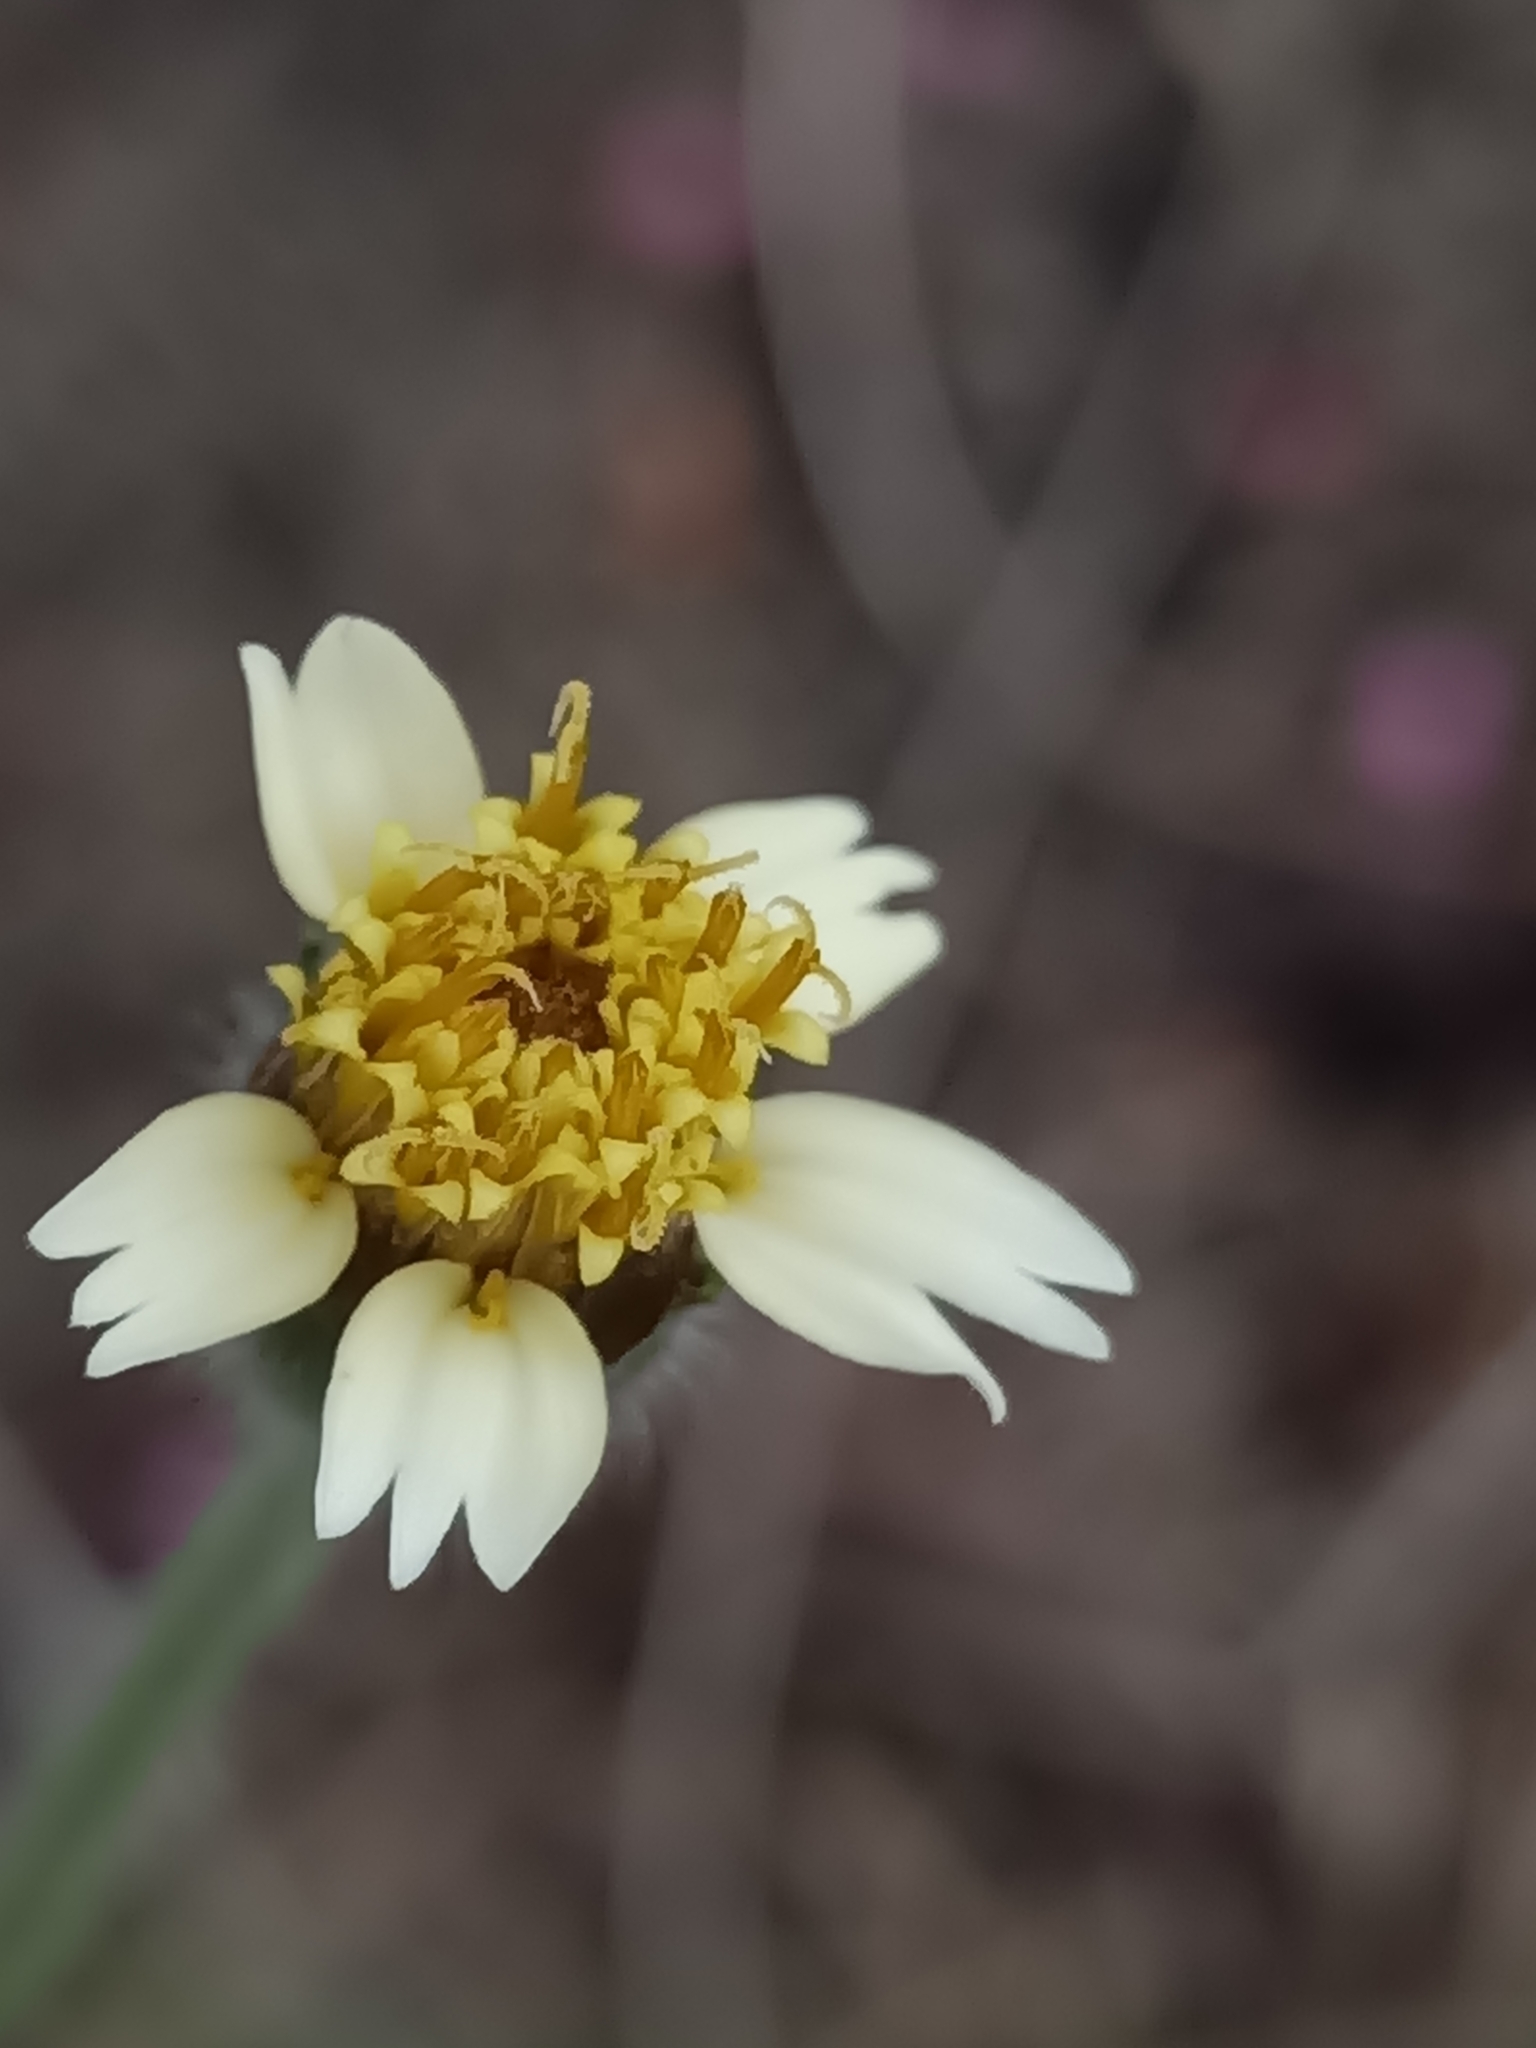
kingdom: Plantae
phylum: Tracheophyta
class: Magnoliopsida
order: Asterales
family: Asteraceae
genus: Tridax
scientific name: Tridax procumbens
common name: Coatbuttons
